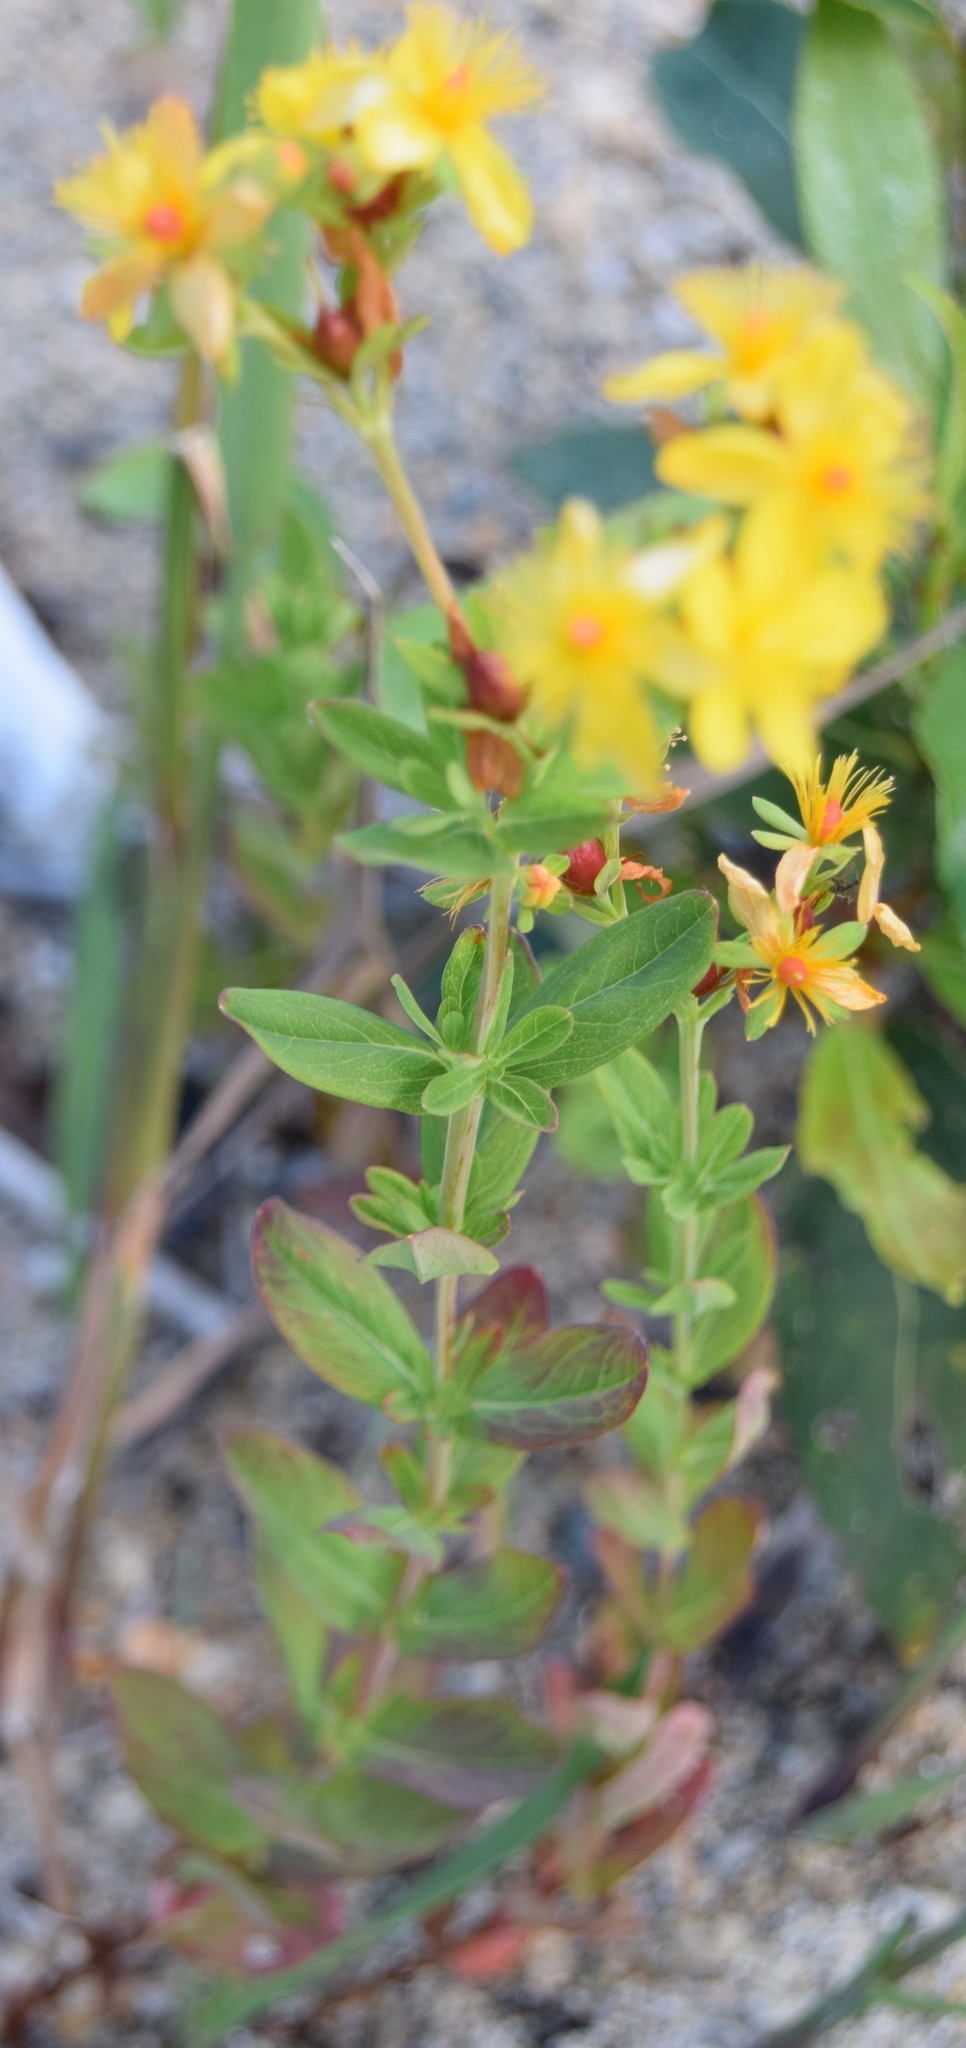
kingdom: Plantae
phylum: Tracheophyta
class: Magnoliopsida
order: Malpighiales
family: Hypericaceae
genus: Hypericum
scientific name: Hypericum ellipticum
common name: Elliptic st. john's-wort
